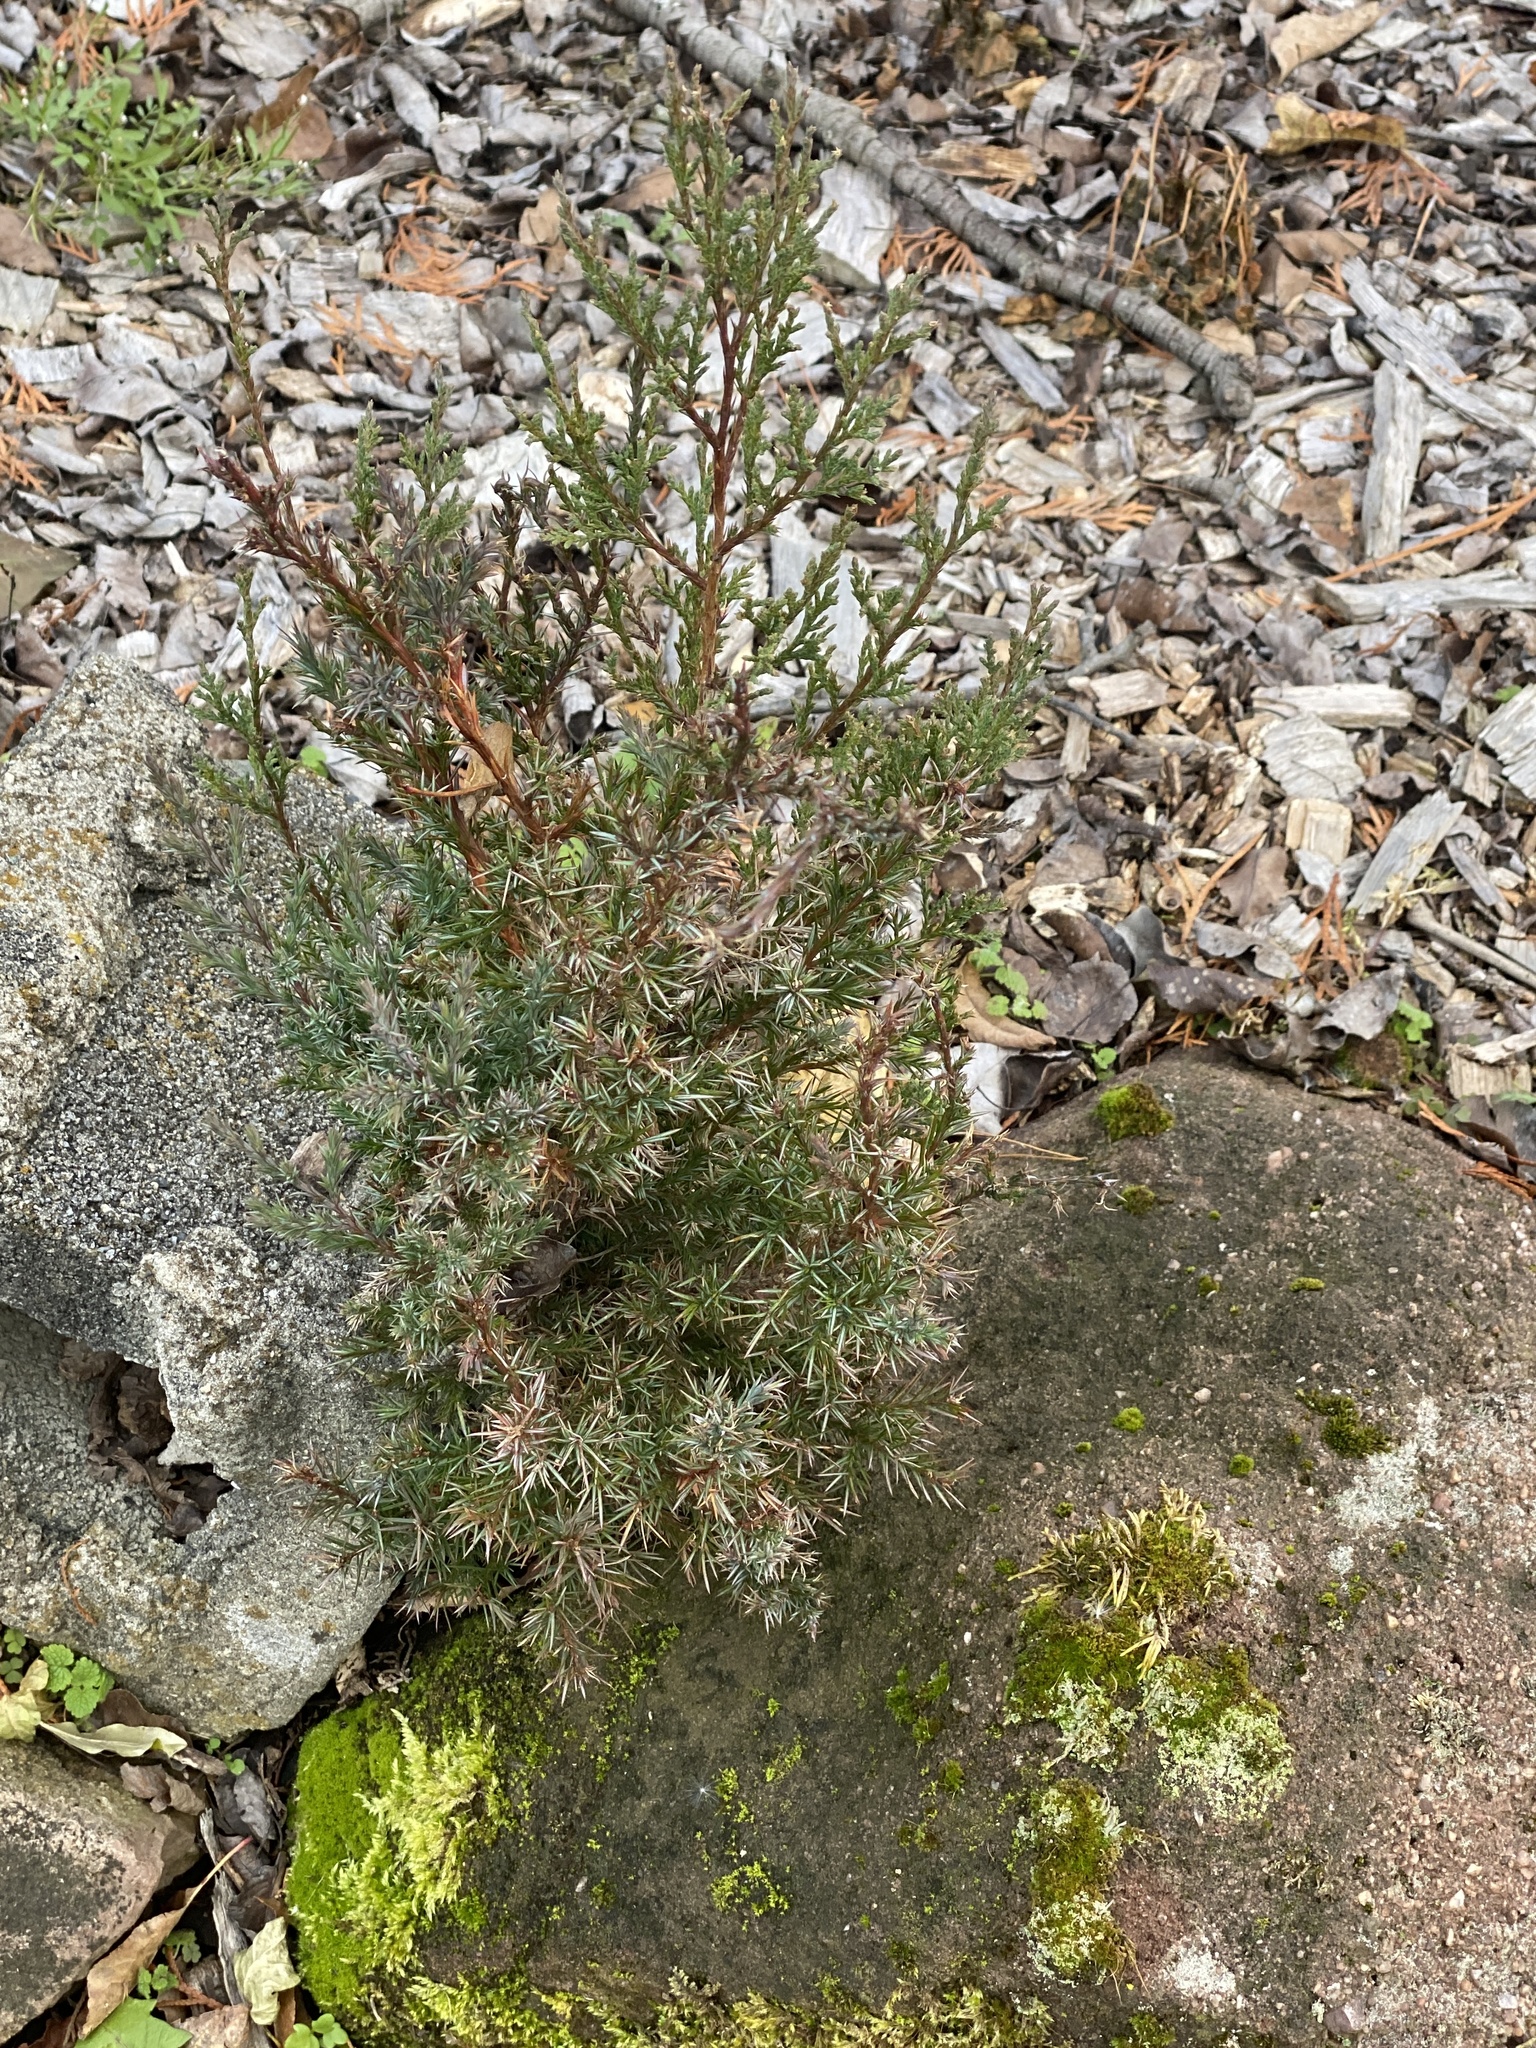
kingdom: Plantae
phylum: Tracheophyta
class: Pinopsida
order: Pinales
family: Cupressaceae
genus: Juniperus
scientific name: Juniperus virginiana
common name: Red juniper
